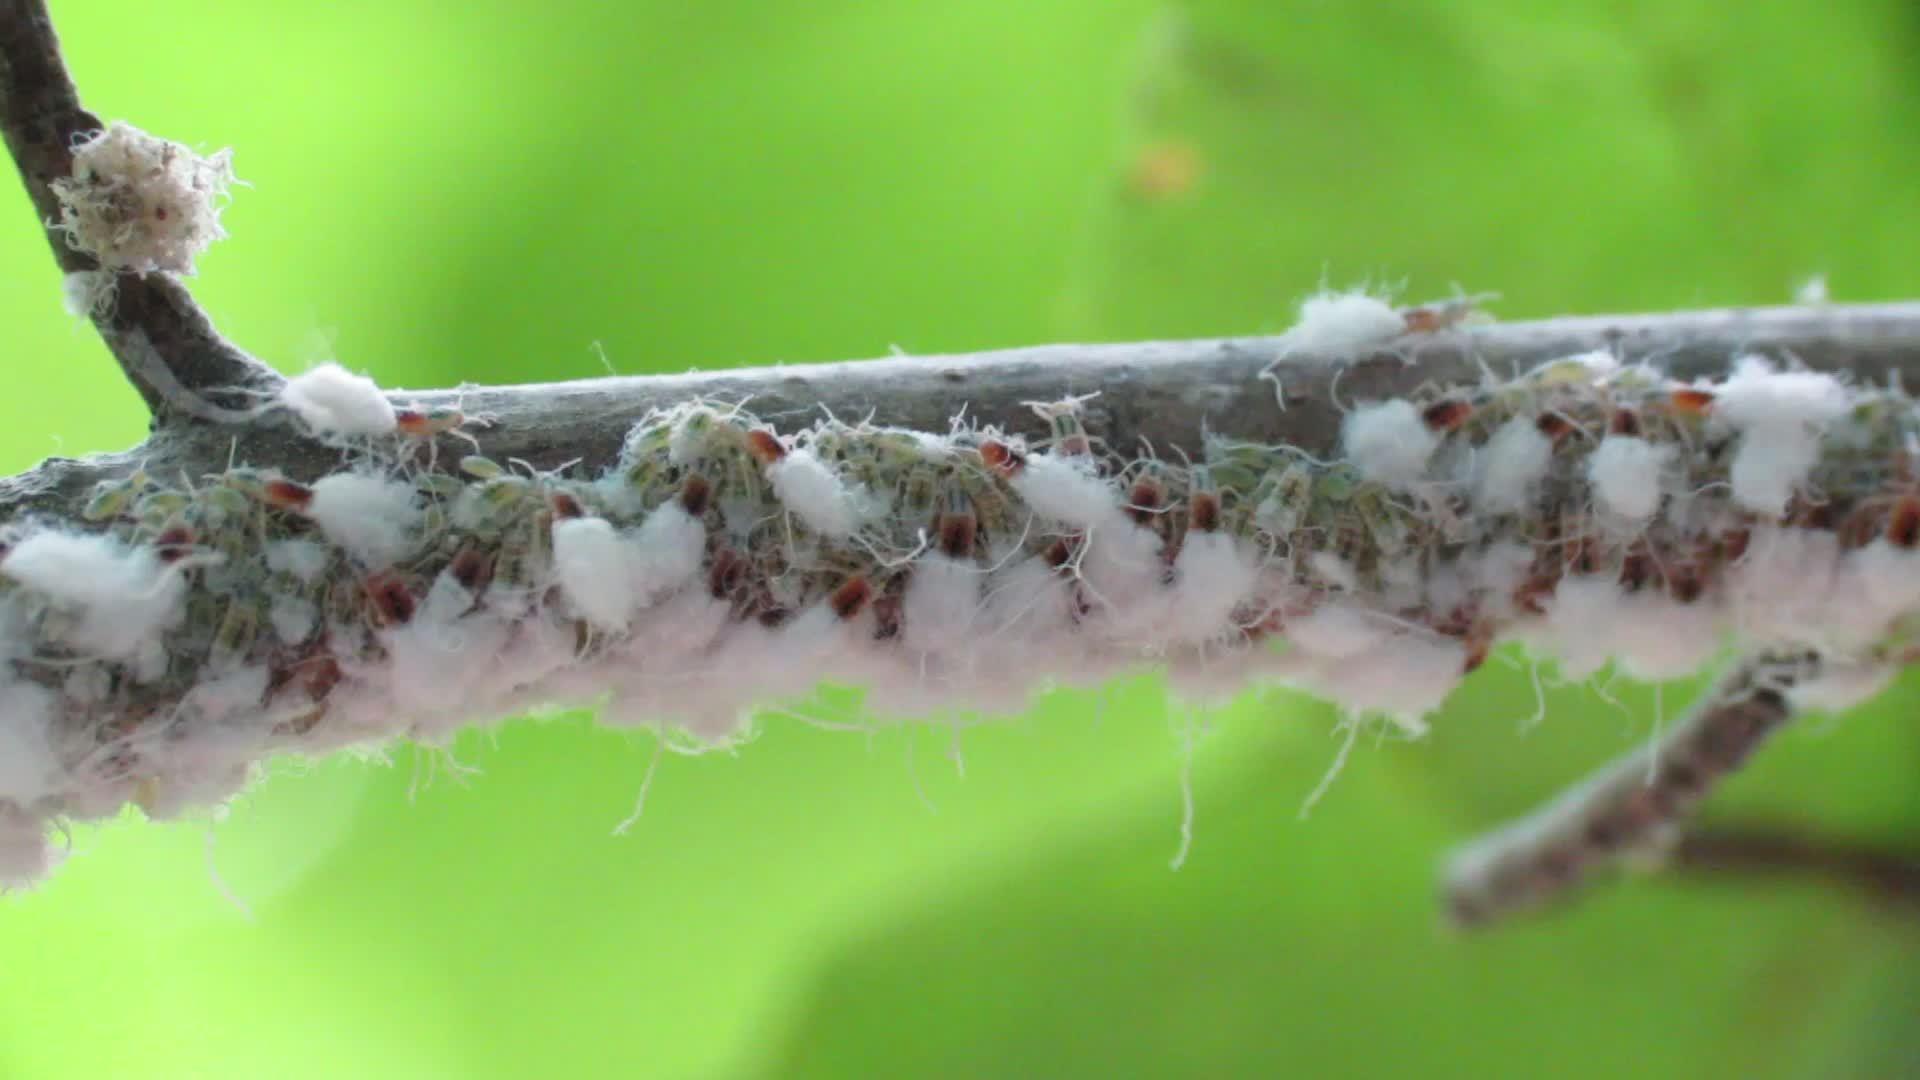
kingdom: Animalia
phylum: Arthropoda
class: Insecta
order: Hemiptera
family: Aphididae
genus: Grylloprociphilus
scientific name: Grylloprociphilus imbricator
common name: Beech blight aphid
